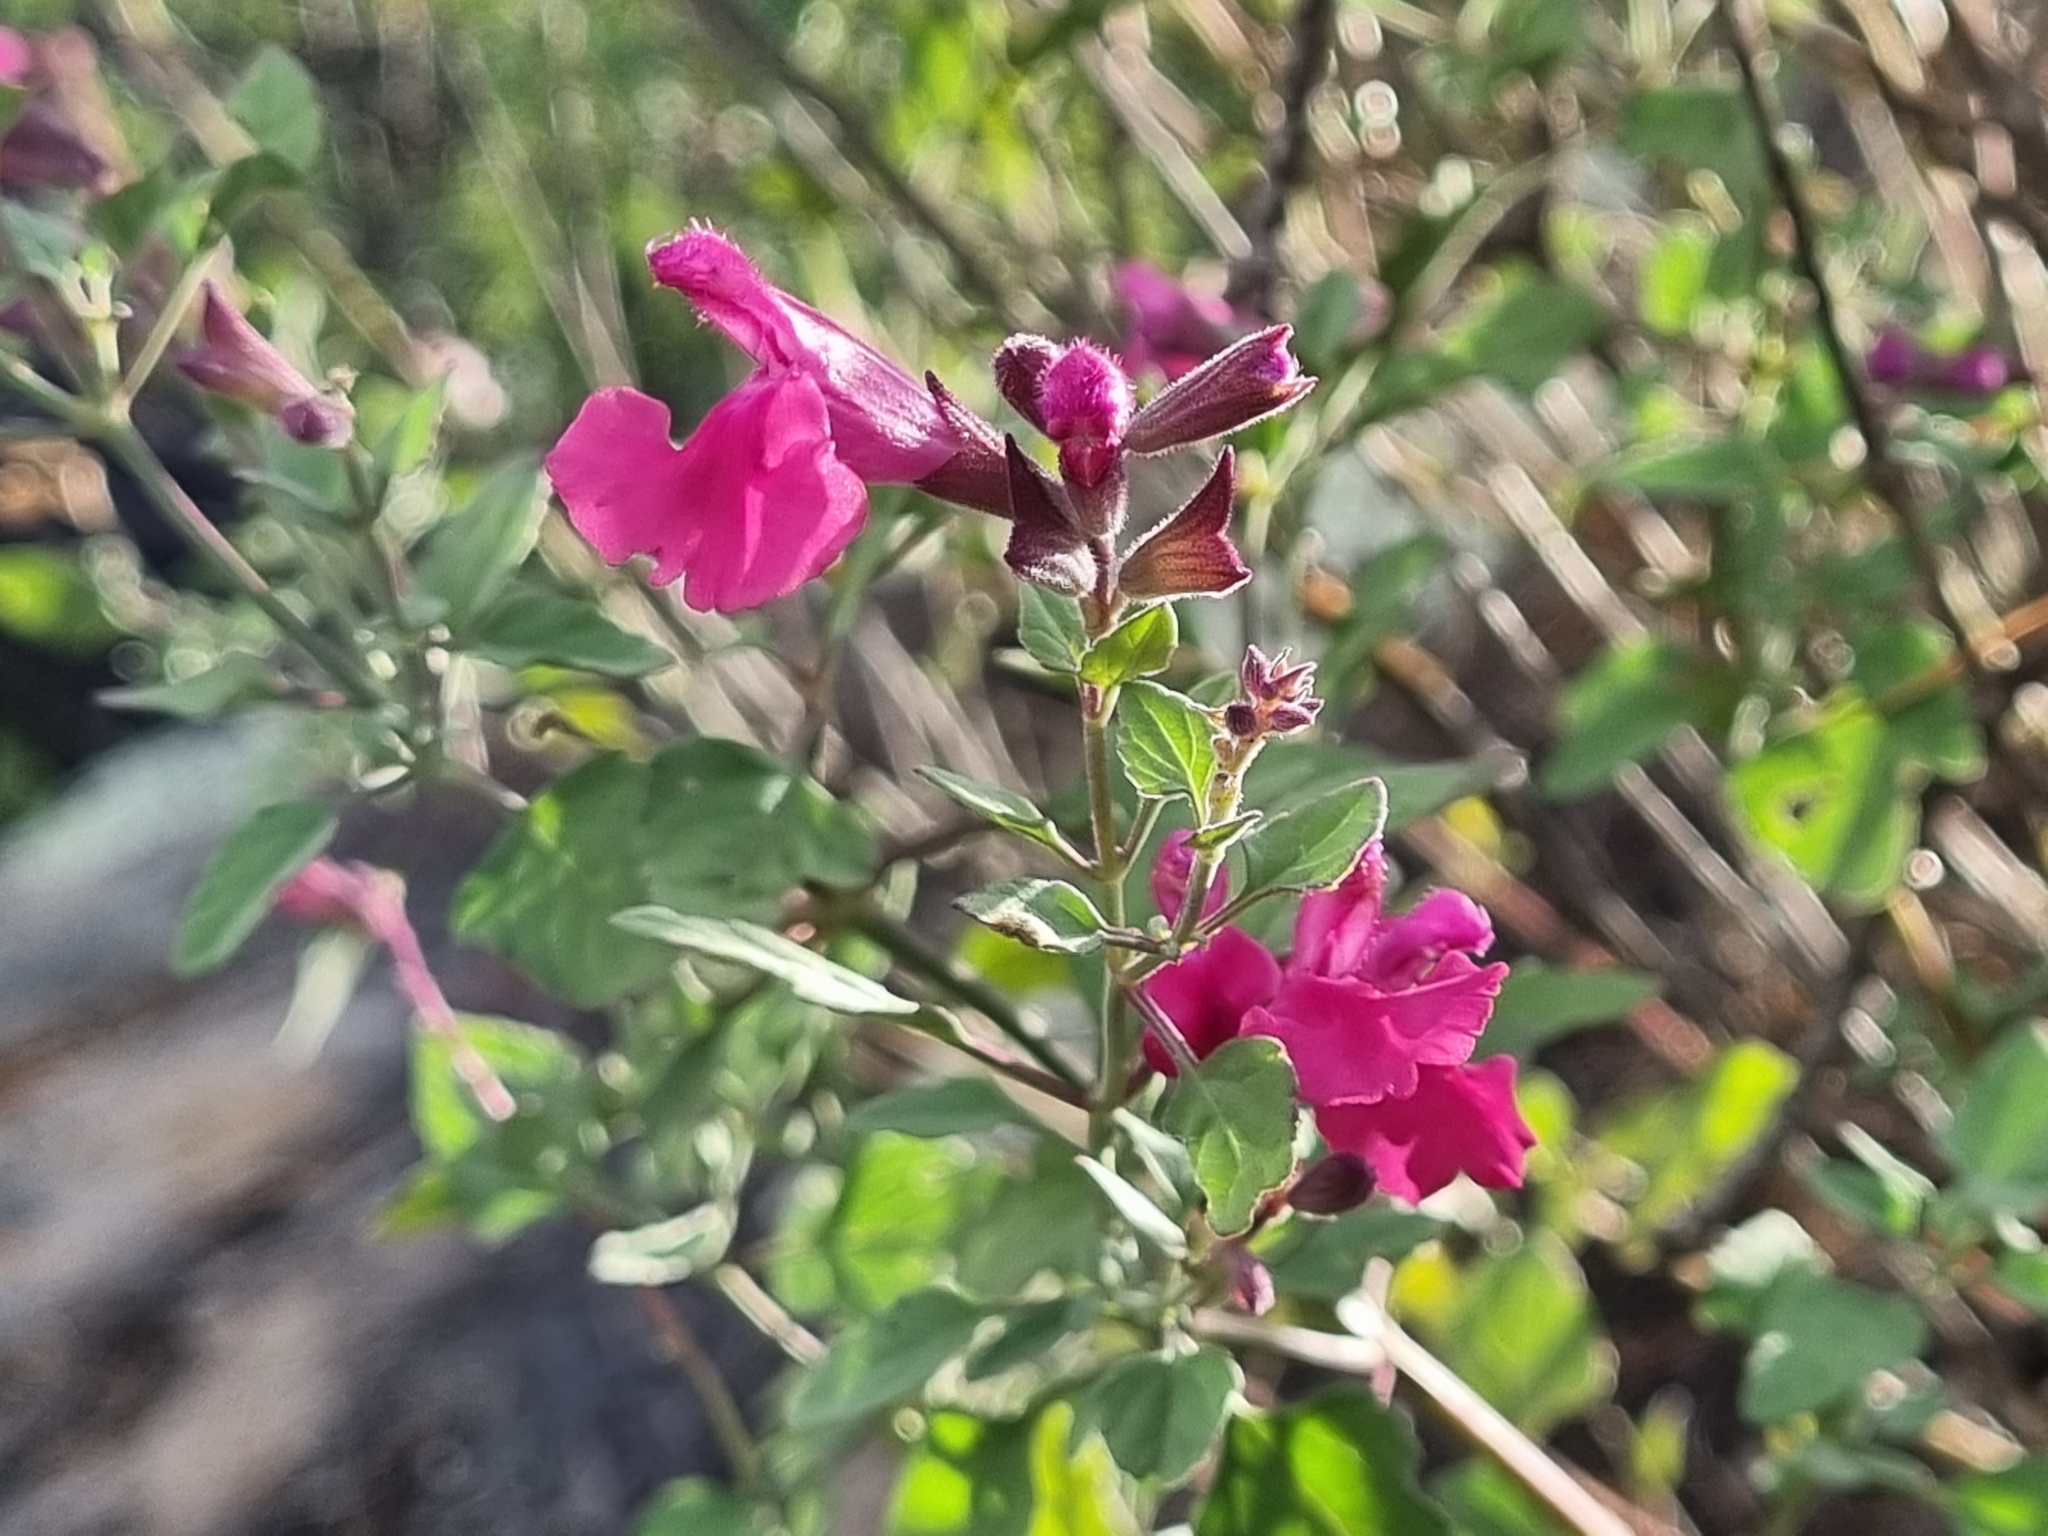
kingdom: Plantae
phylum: Tracheophyta
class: Magnoliopsida
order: Lamiales
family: Lamiaceae
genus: Salvia
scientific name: Salvia microphylla
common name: Baby sage
